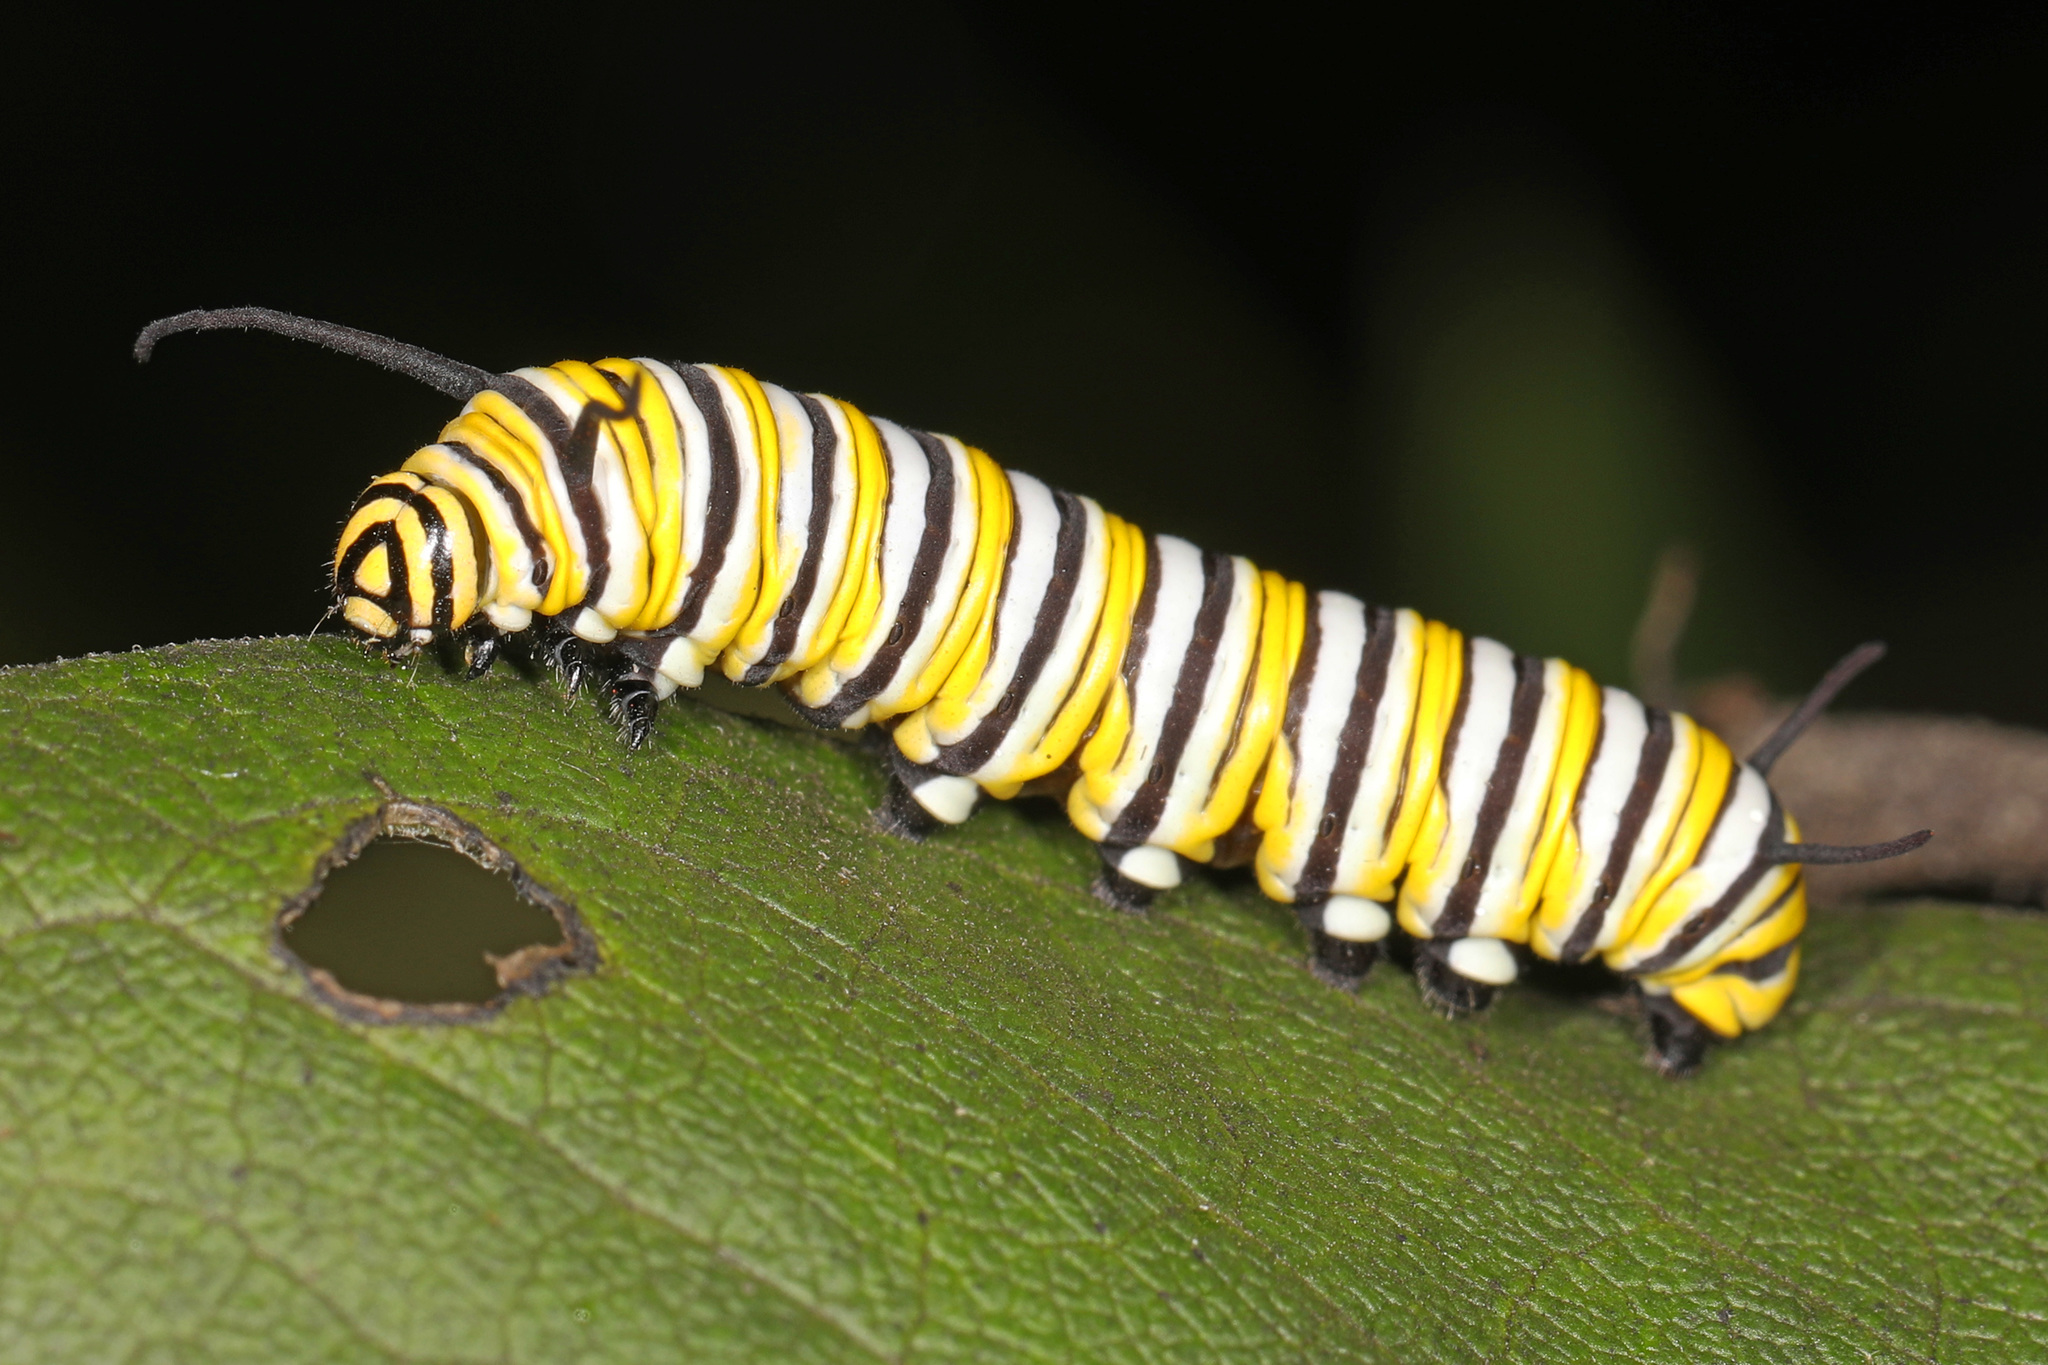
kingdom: Animalia
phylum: Arthropoda
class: Insecta
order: Lepidoptera
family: Nymphalidae
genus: Danaus
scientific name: Danaus plexippus
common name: Monarch
